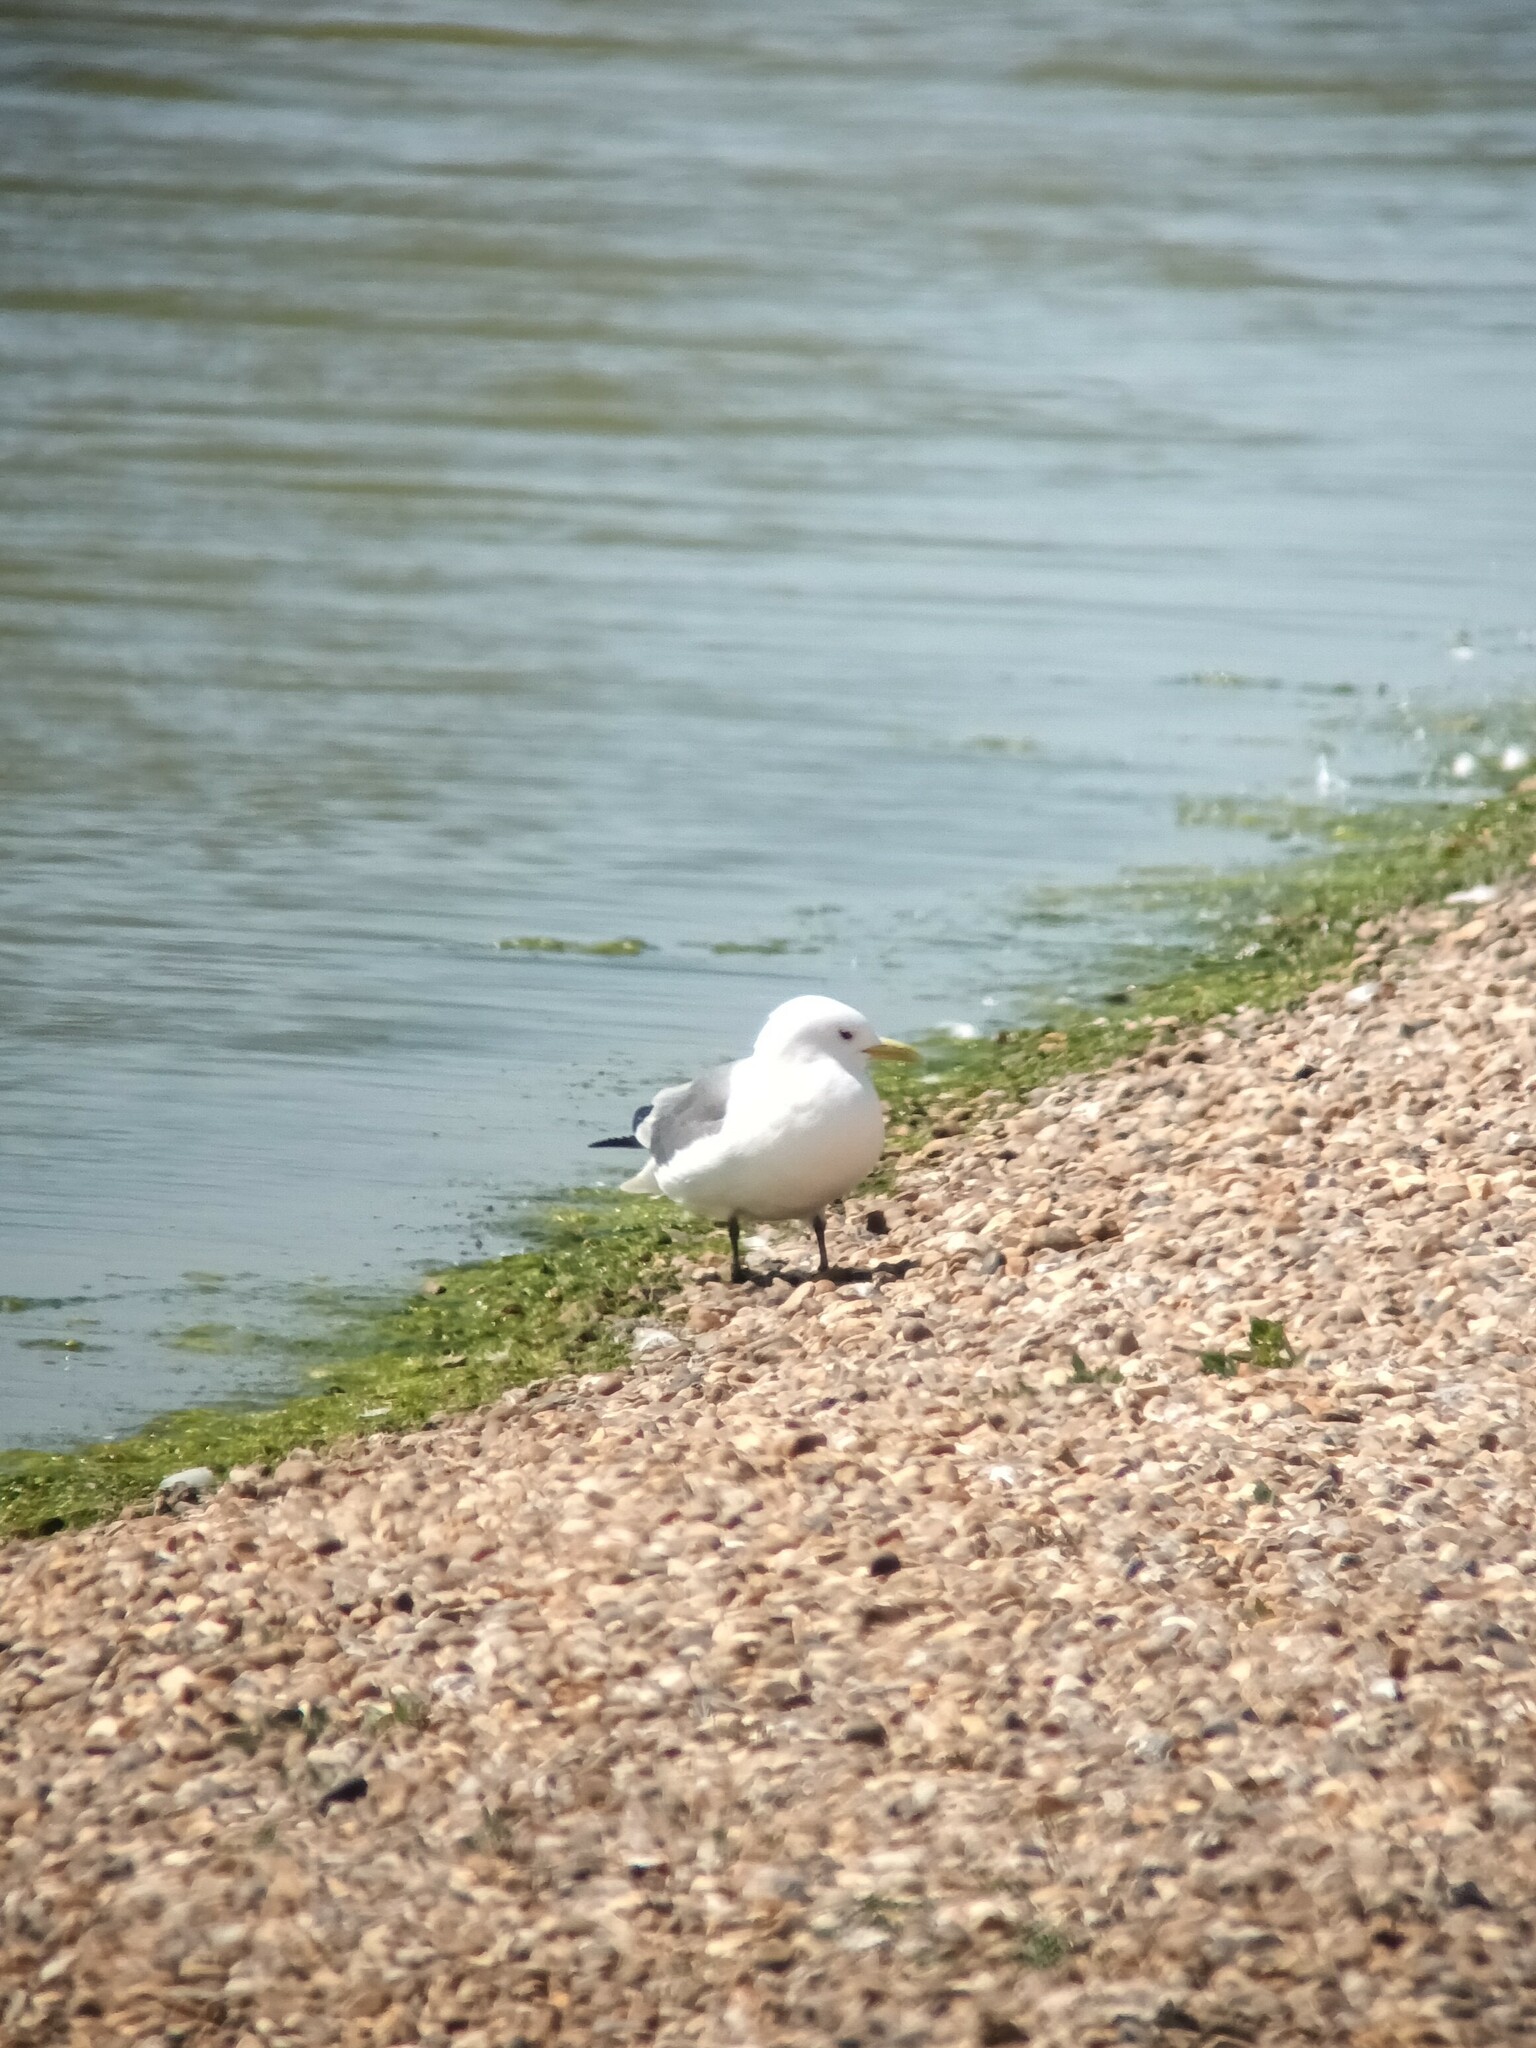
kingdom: Animalia
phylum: Chordata
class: Aves
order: Charadriiformes
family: Laridae
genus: Rissa
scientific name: Rissa tridactyla
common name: Black-legged kittiwake
